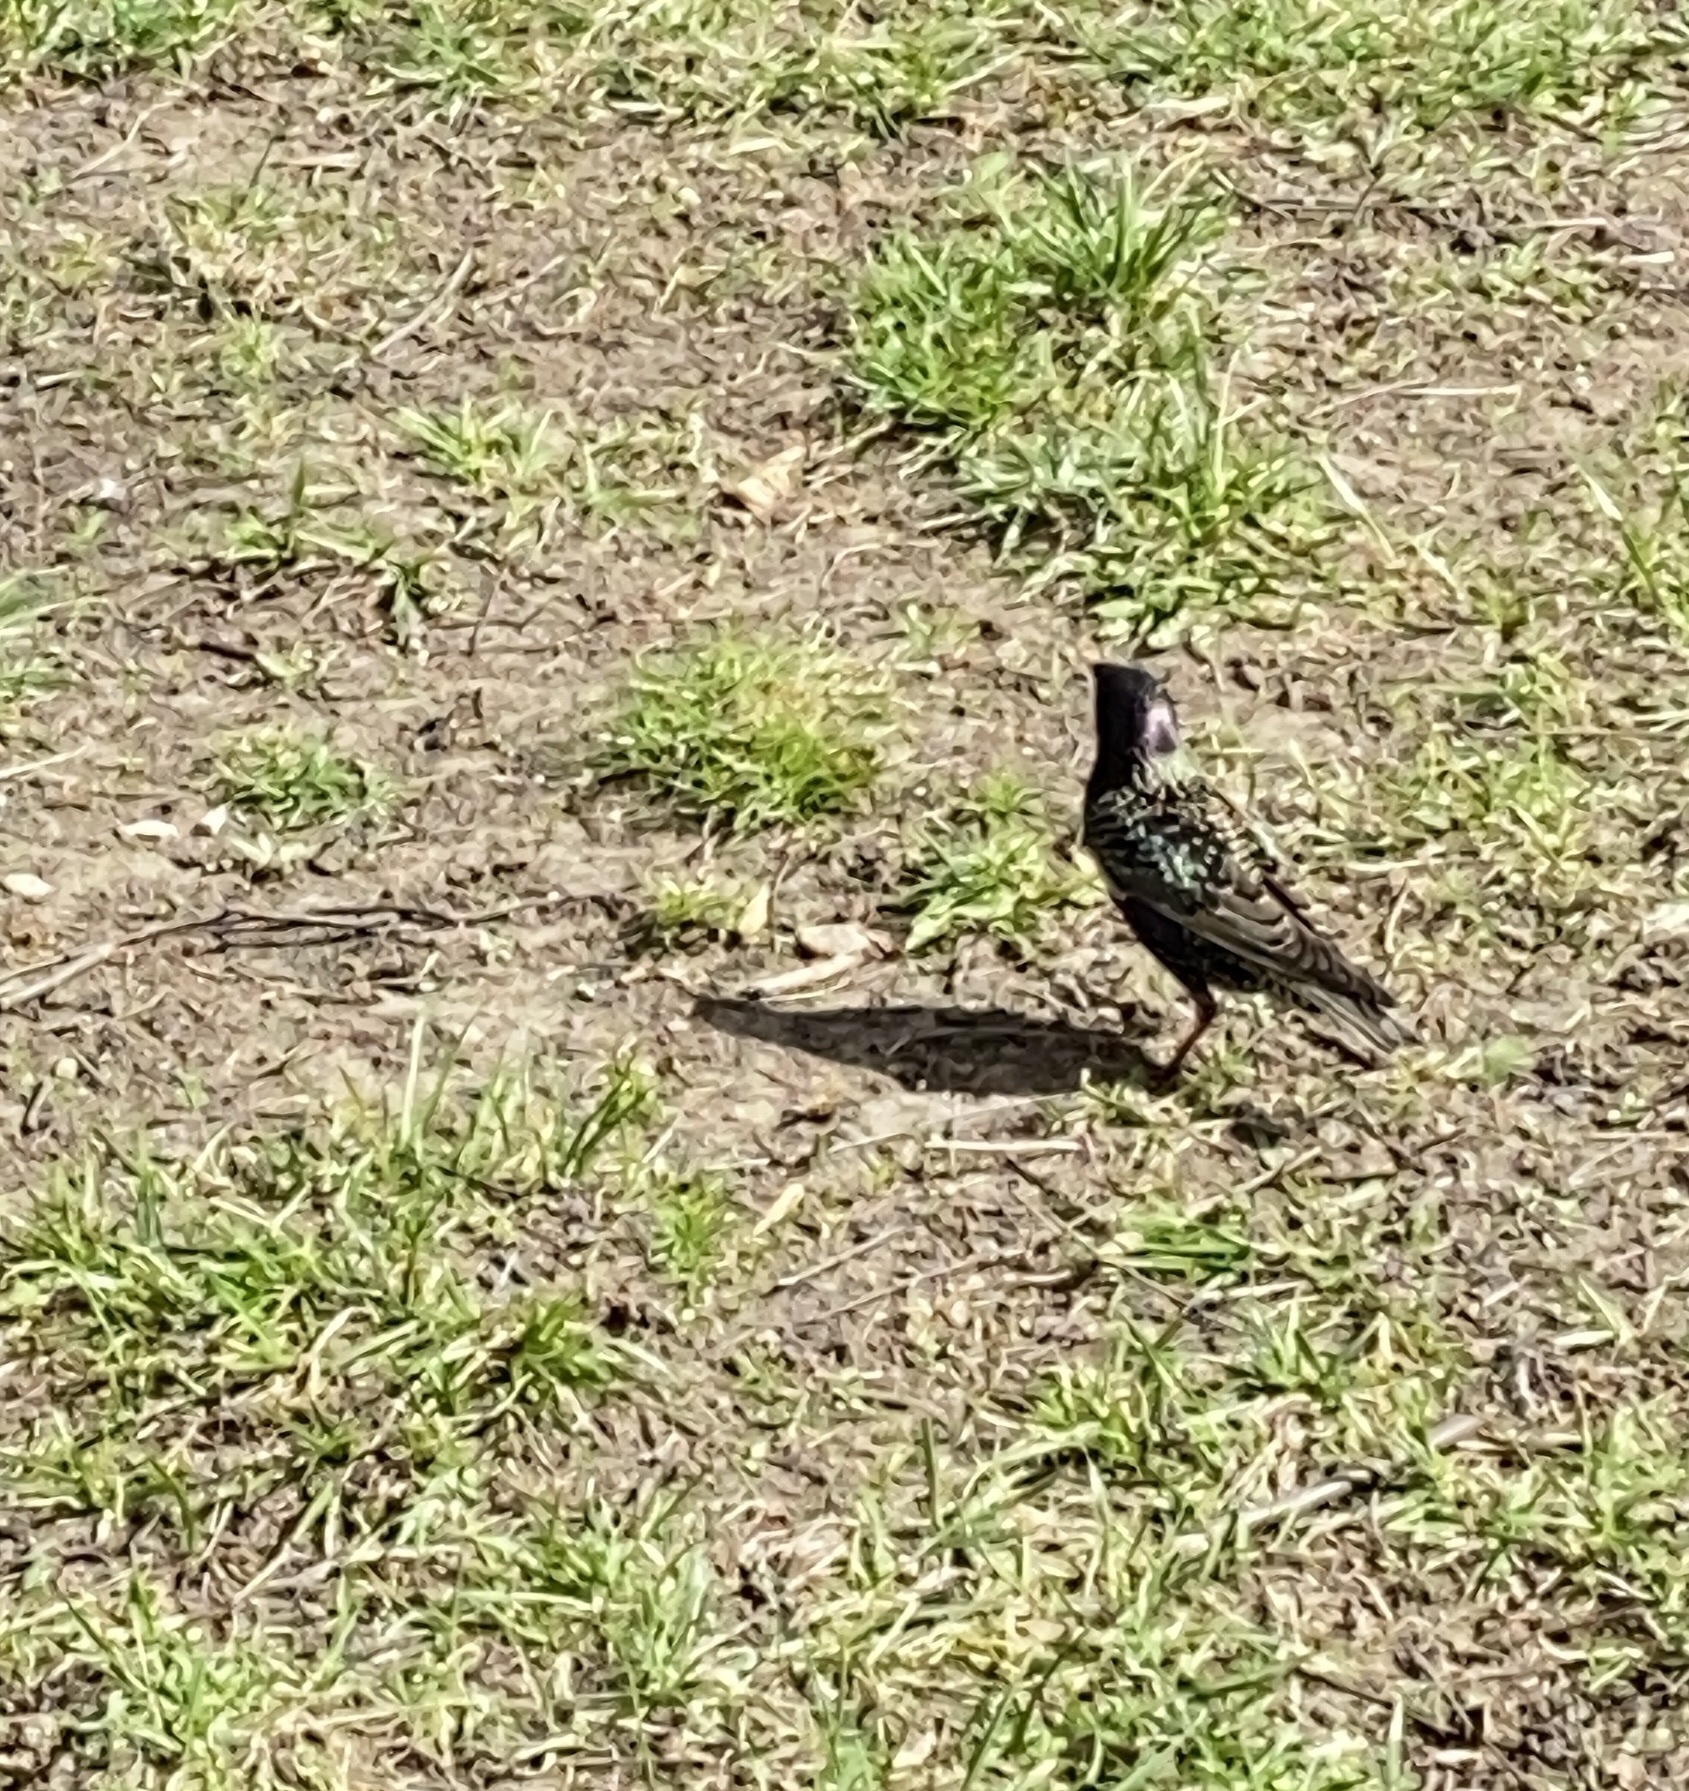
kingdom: Animalia
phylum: Chordata
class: Aves
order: Passeriformes
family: Sturnidae
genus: Sturnus
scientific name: Sturnus vulgaris
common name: Common starling
